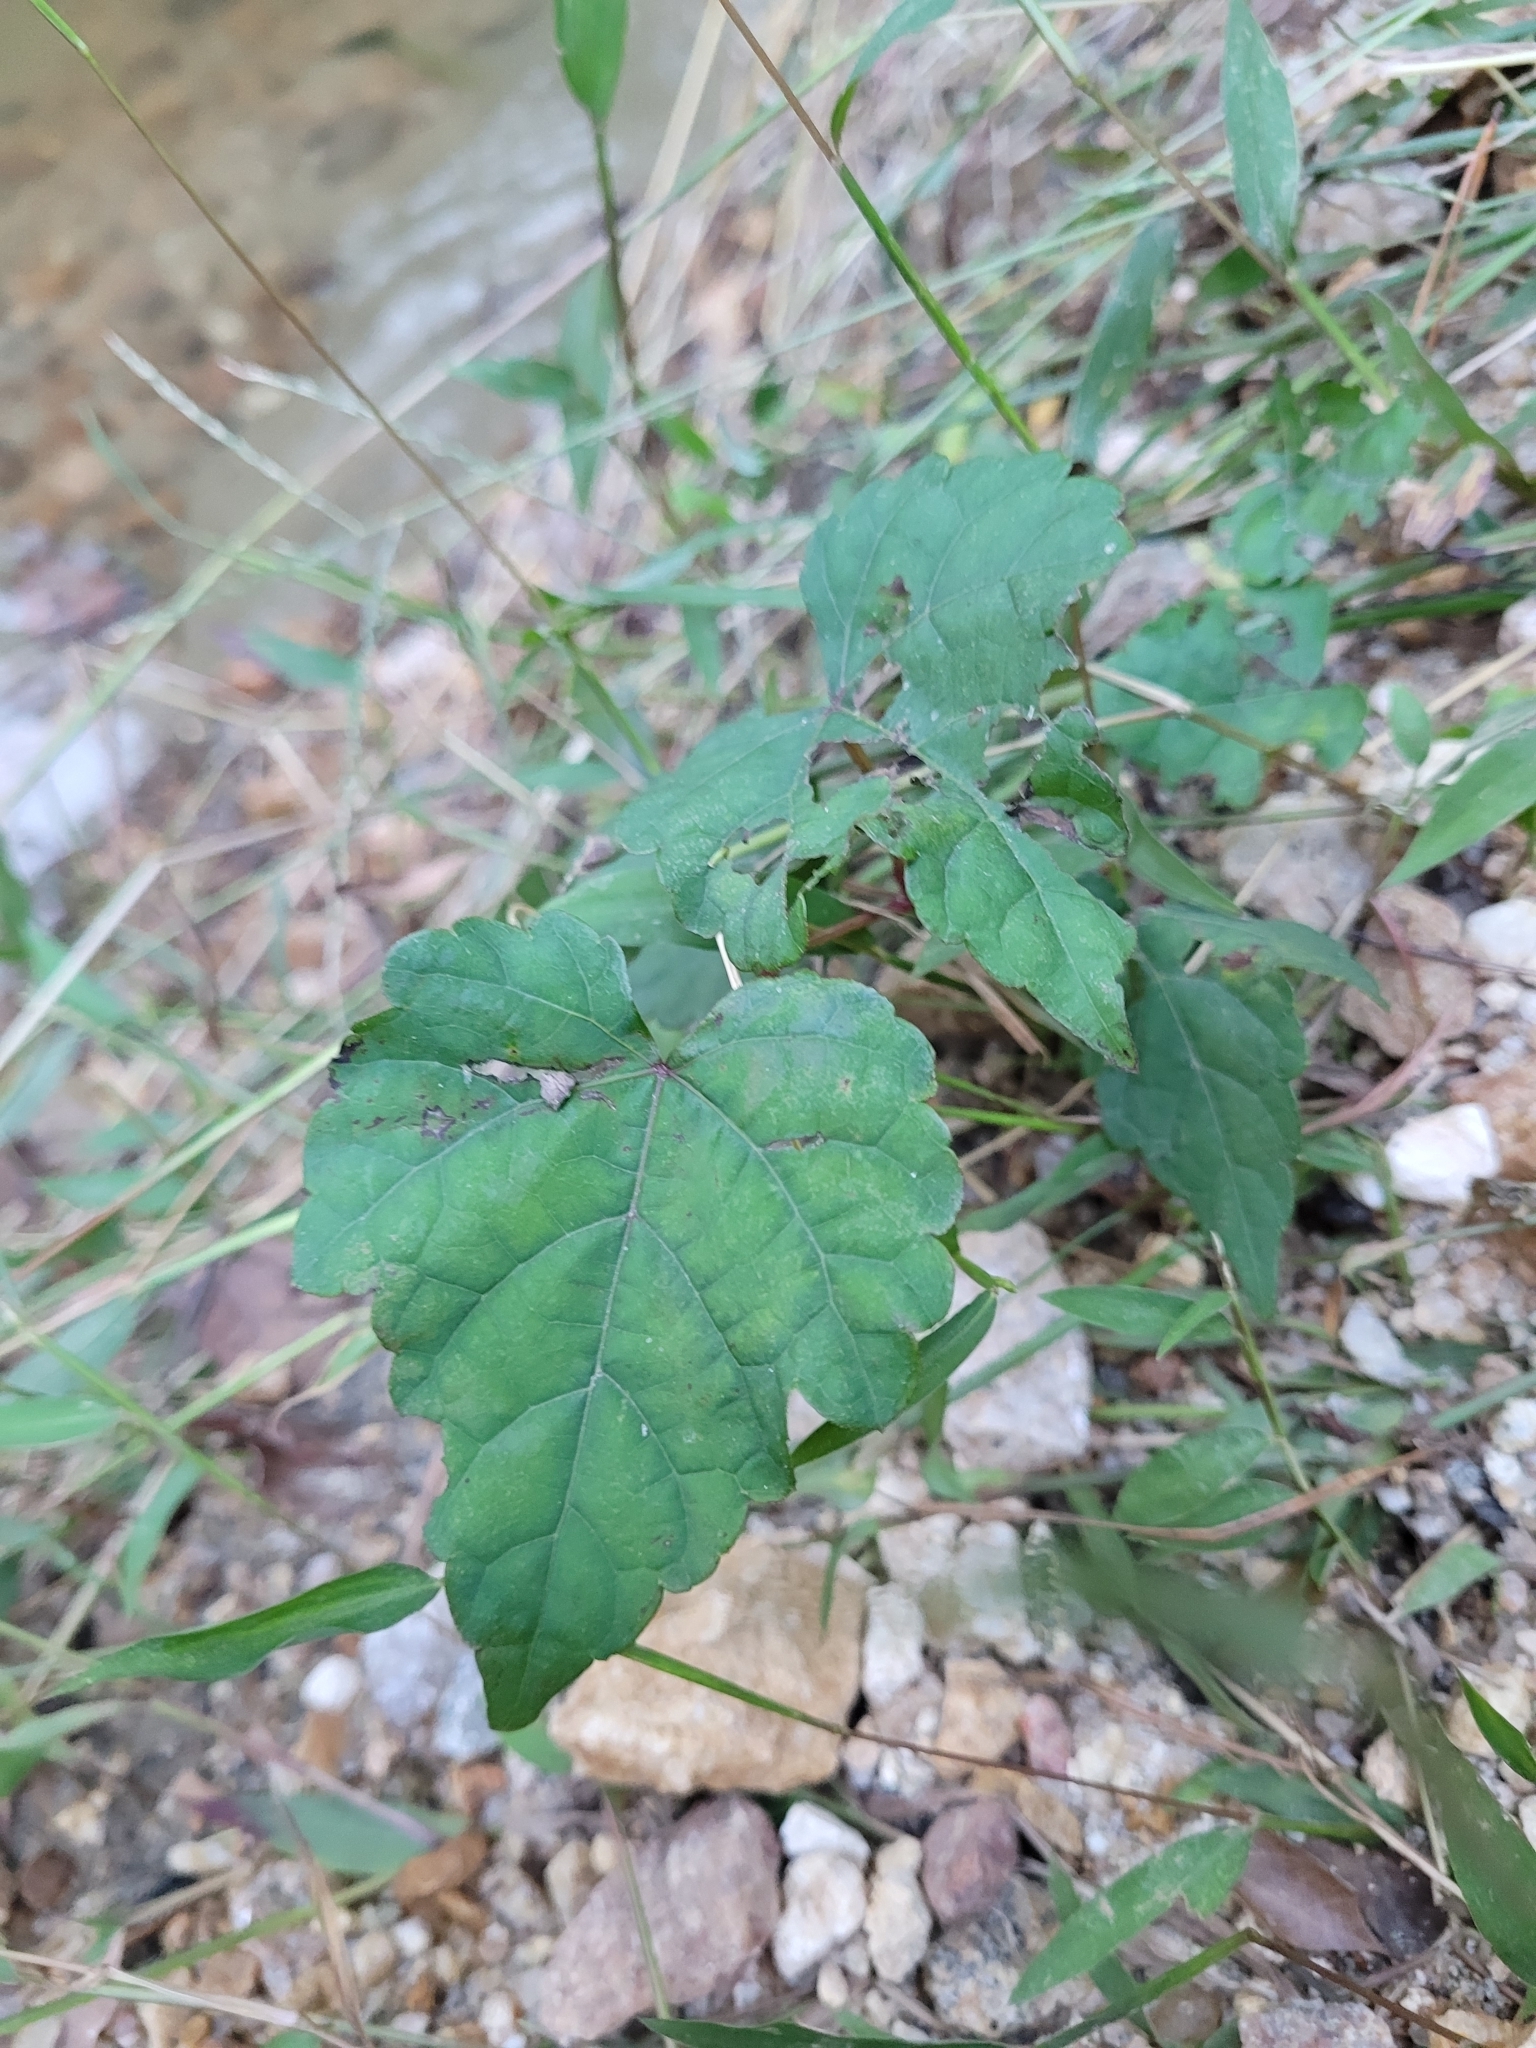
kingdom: Plantae
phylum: Tracheophyta
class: Magnoliopsida
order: Vitales
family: Vitaceae
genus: Ampelopsis
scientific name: Ampelopsis glandulosa
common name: Amur peppervine
